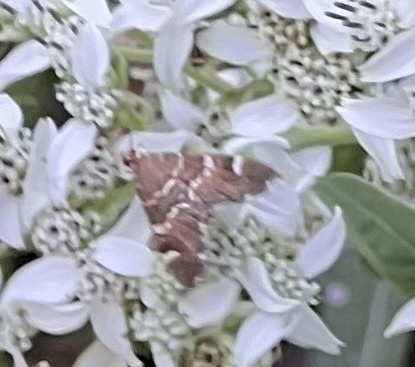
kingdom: Animalia
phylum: Arthropoda
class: Insecta
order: Lepidoptera
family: Crambidae
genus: Hymenia
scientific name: Hymenia perspectalis
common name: Spotted beet webworm
